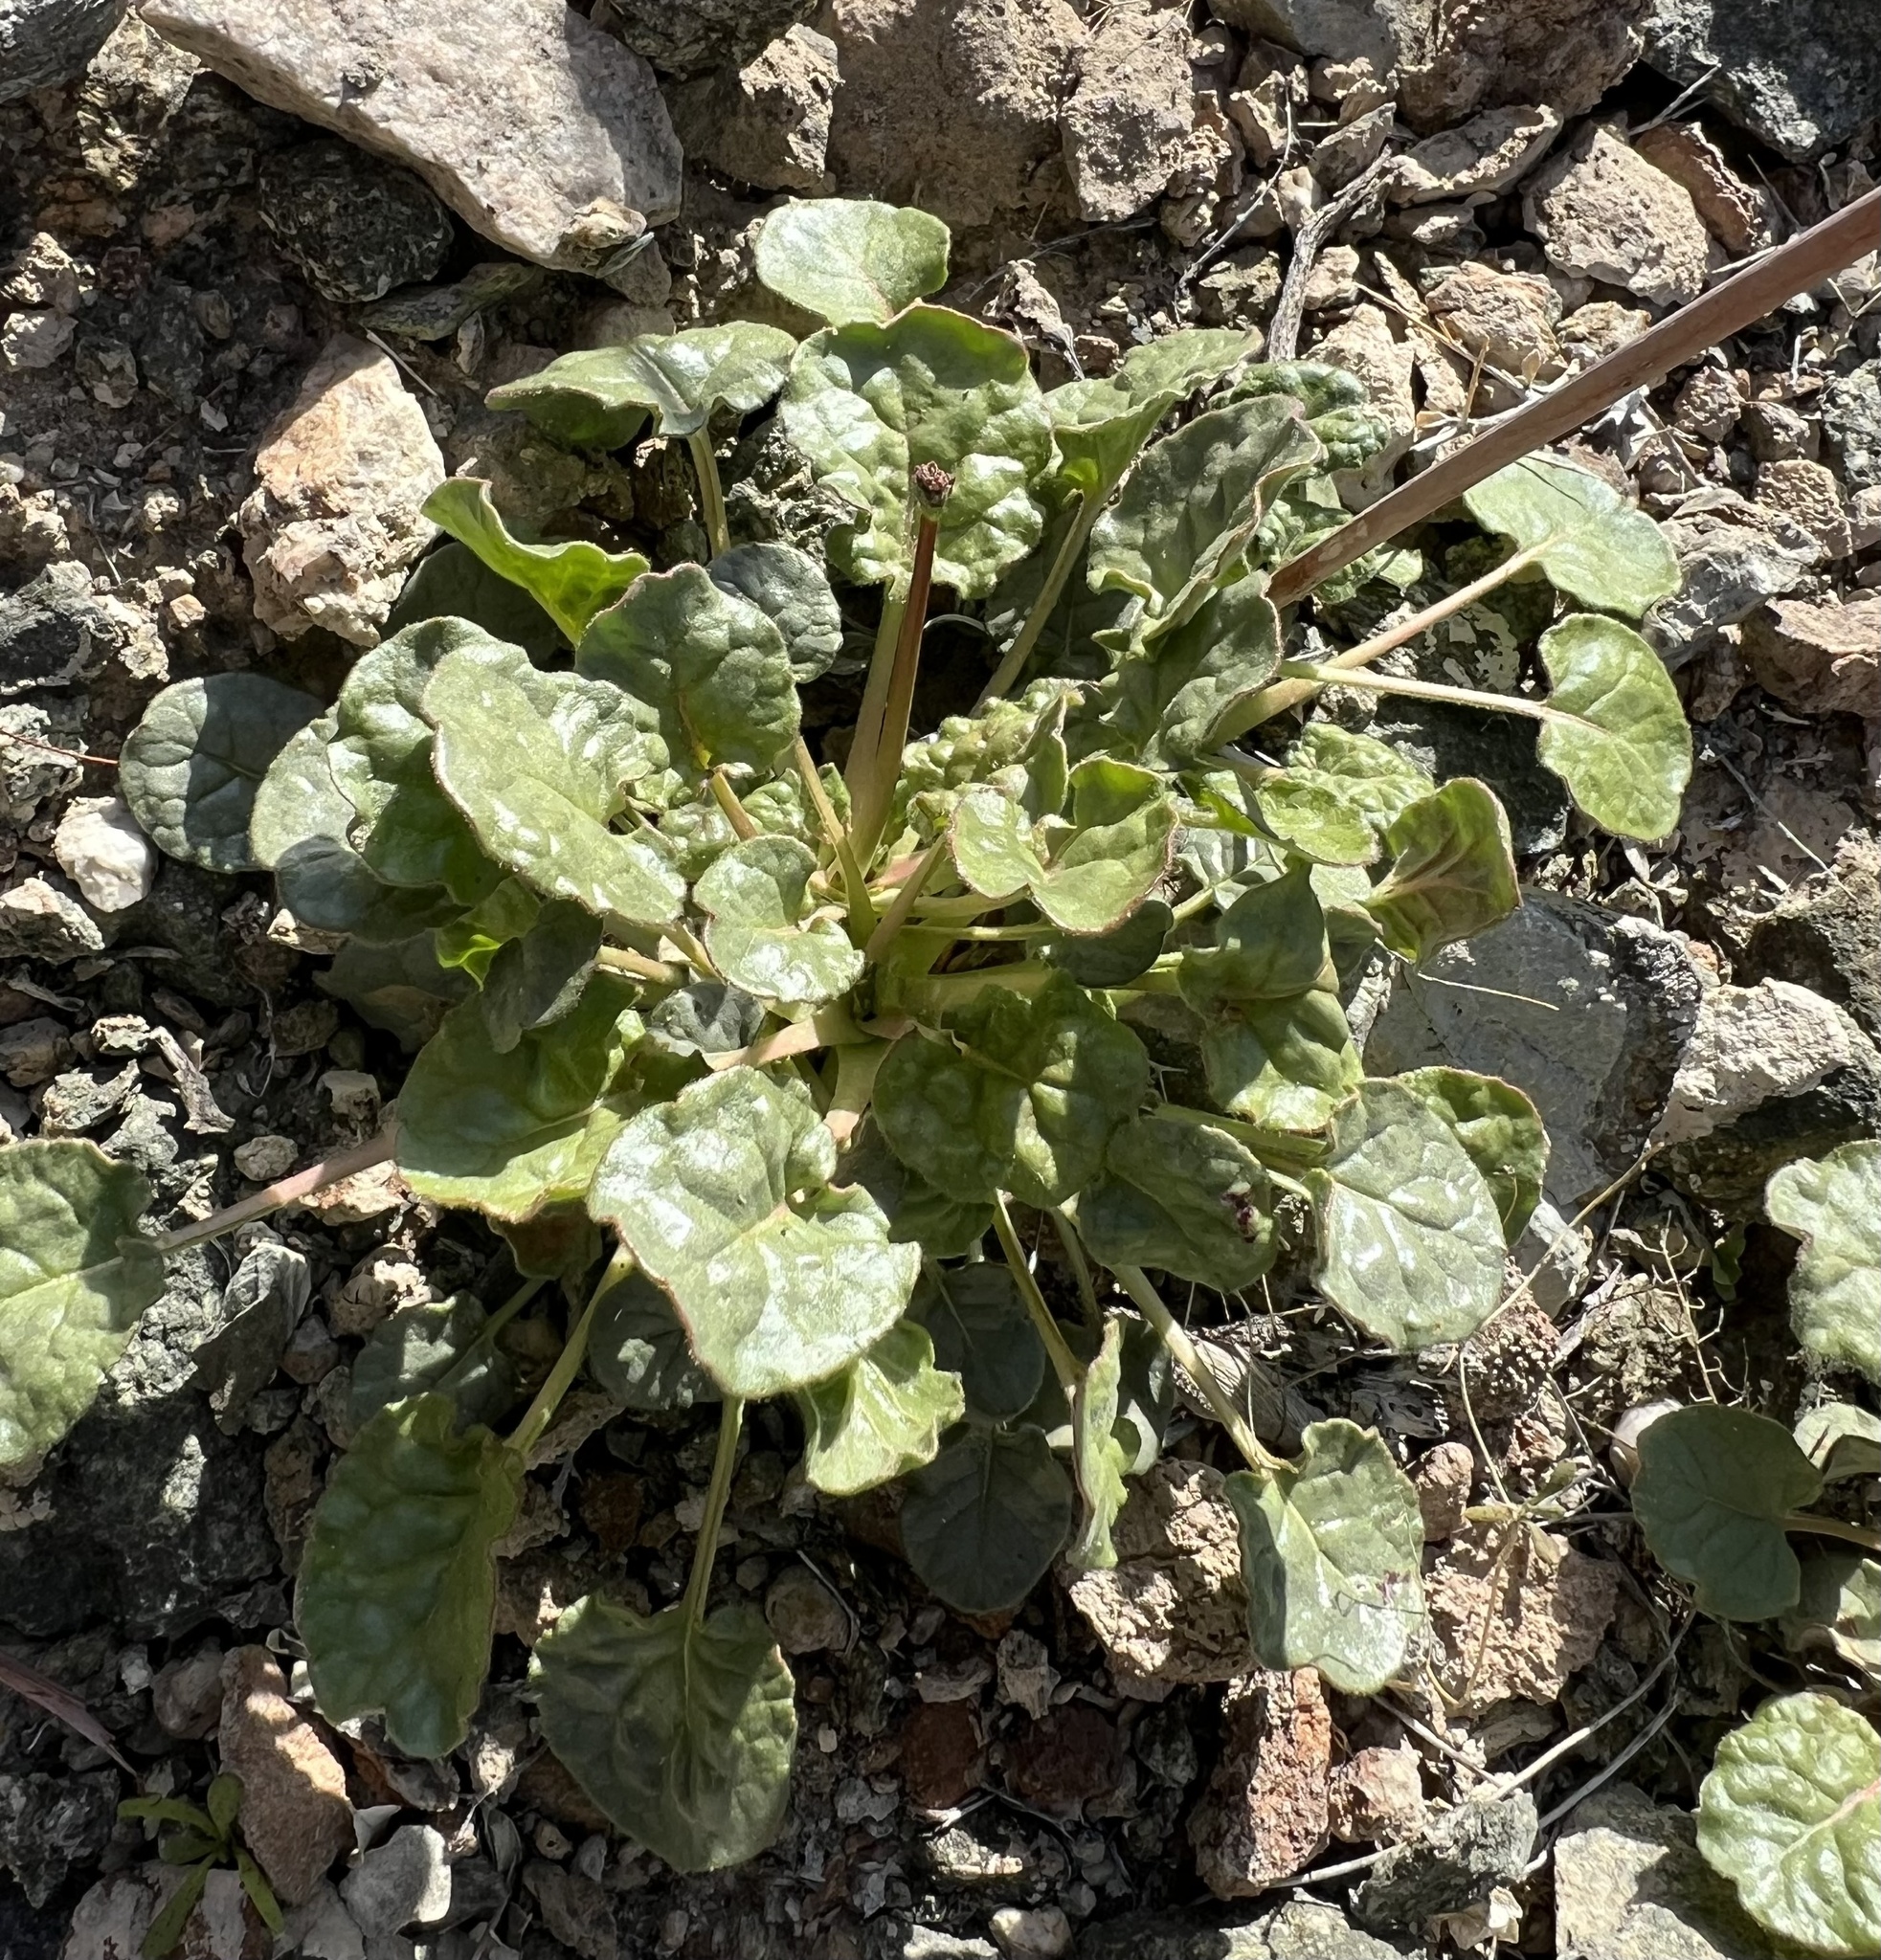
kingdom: Plantae
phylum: Tracheophyta
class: Magnoliopsida
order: Caryophyllales
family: Polygonaceae
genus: Eriogonum
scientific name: Eriogonum inflatum
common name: Desert trumpet
